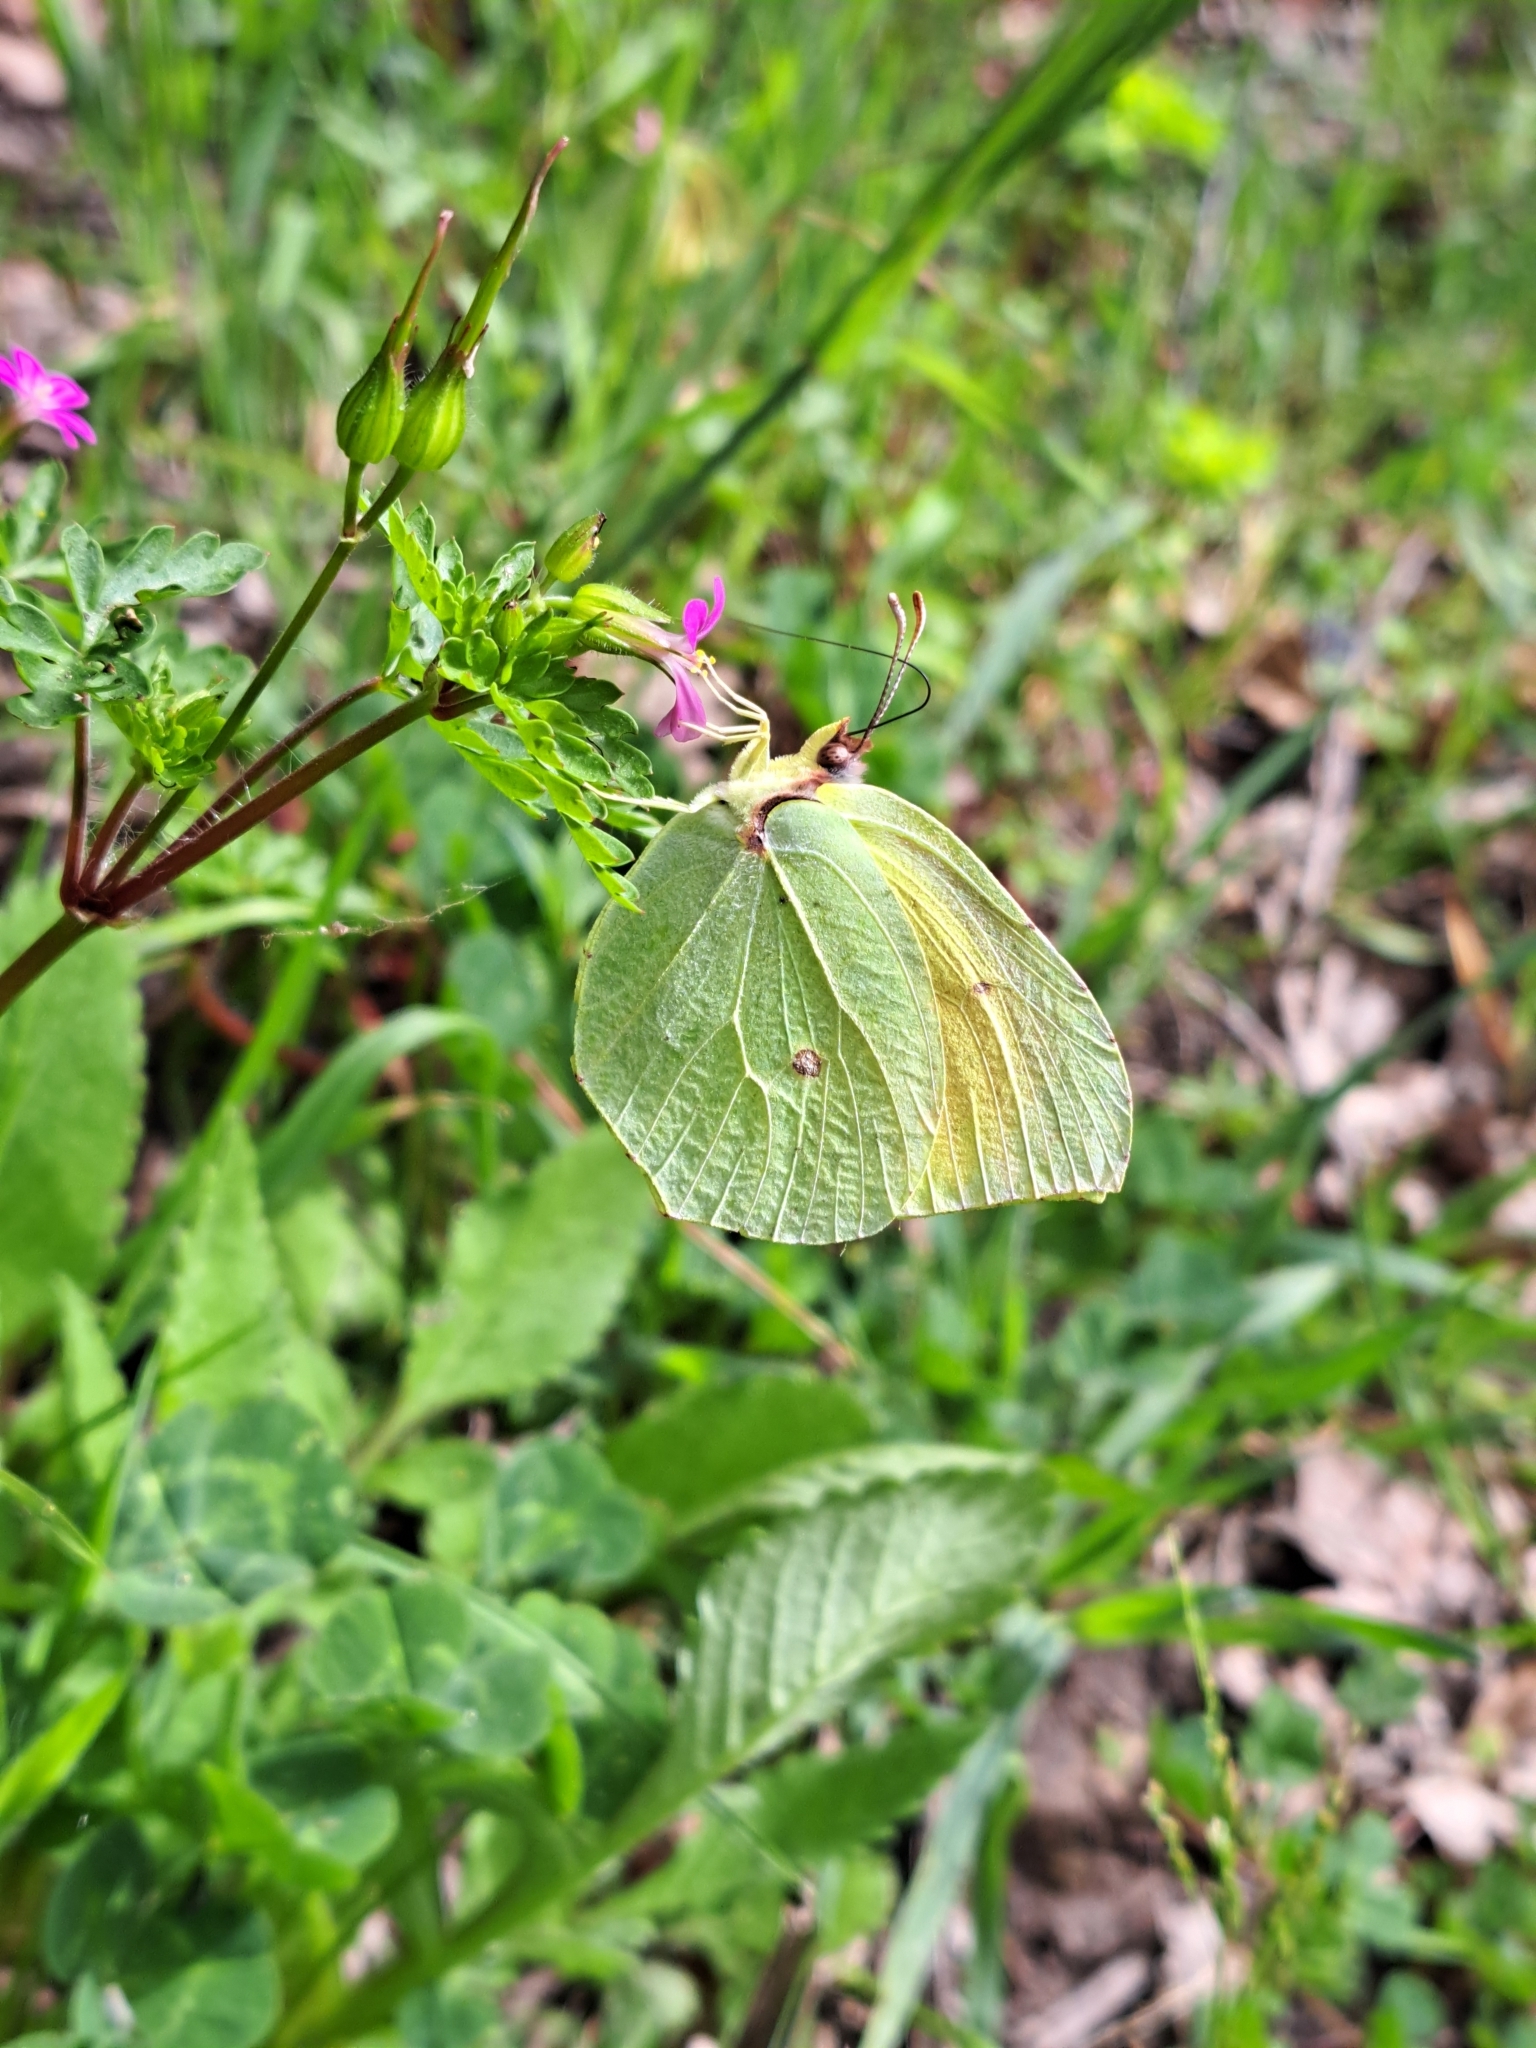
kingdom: Animalia
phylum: Arthropoda
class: Insecta
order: Lepidoptera
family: Pieridae
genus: Gonepteryx
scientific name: Gonepteryx cleopatra
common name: Cleopatra
